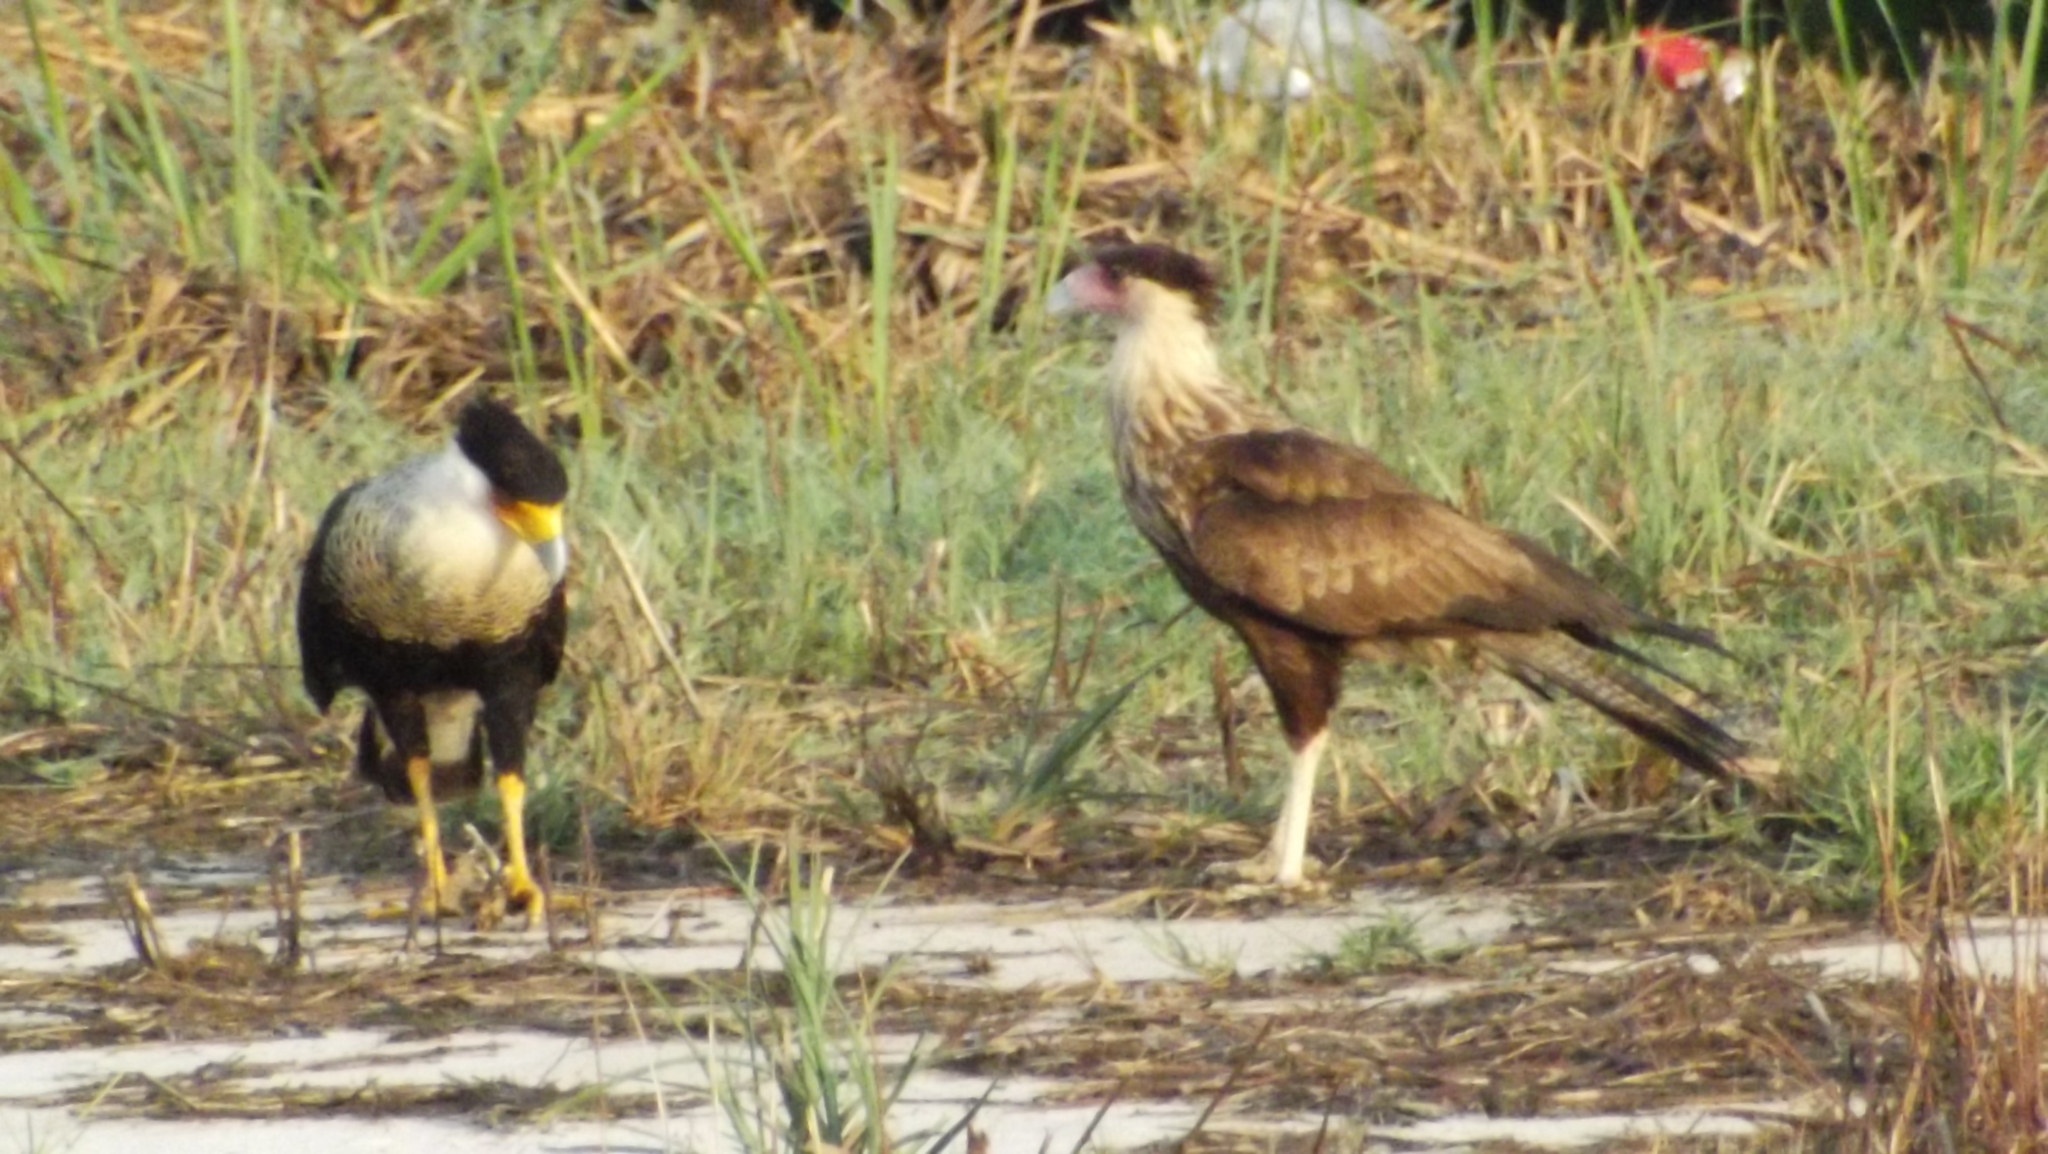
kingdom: Animalia
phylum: Chordata
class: Aves
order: Falconiformes
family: Falconidae
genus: Caracara
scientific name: Caracara plancus
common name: Southern caracara
